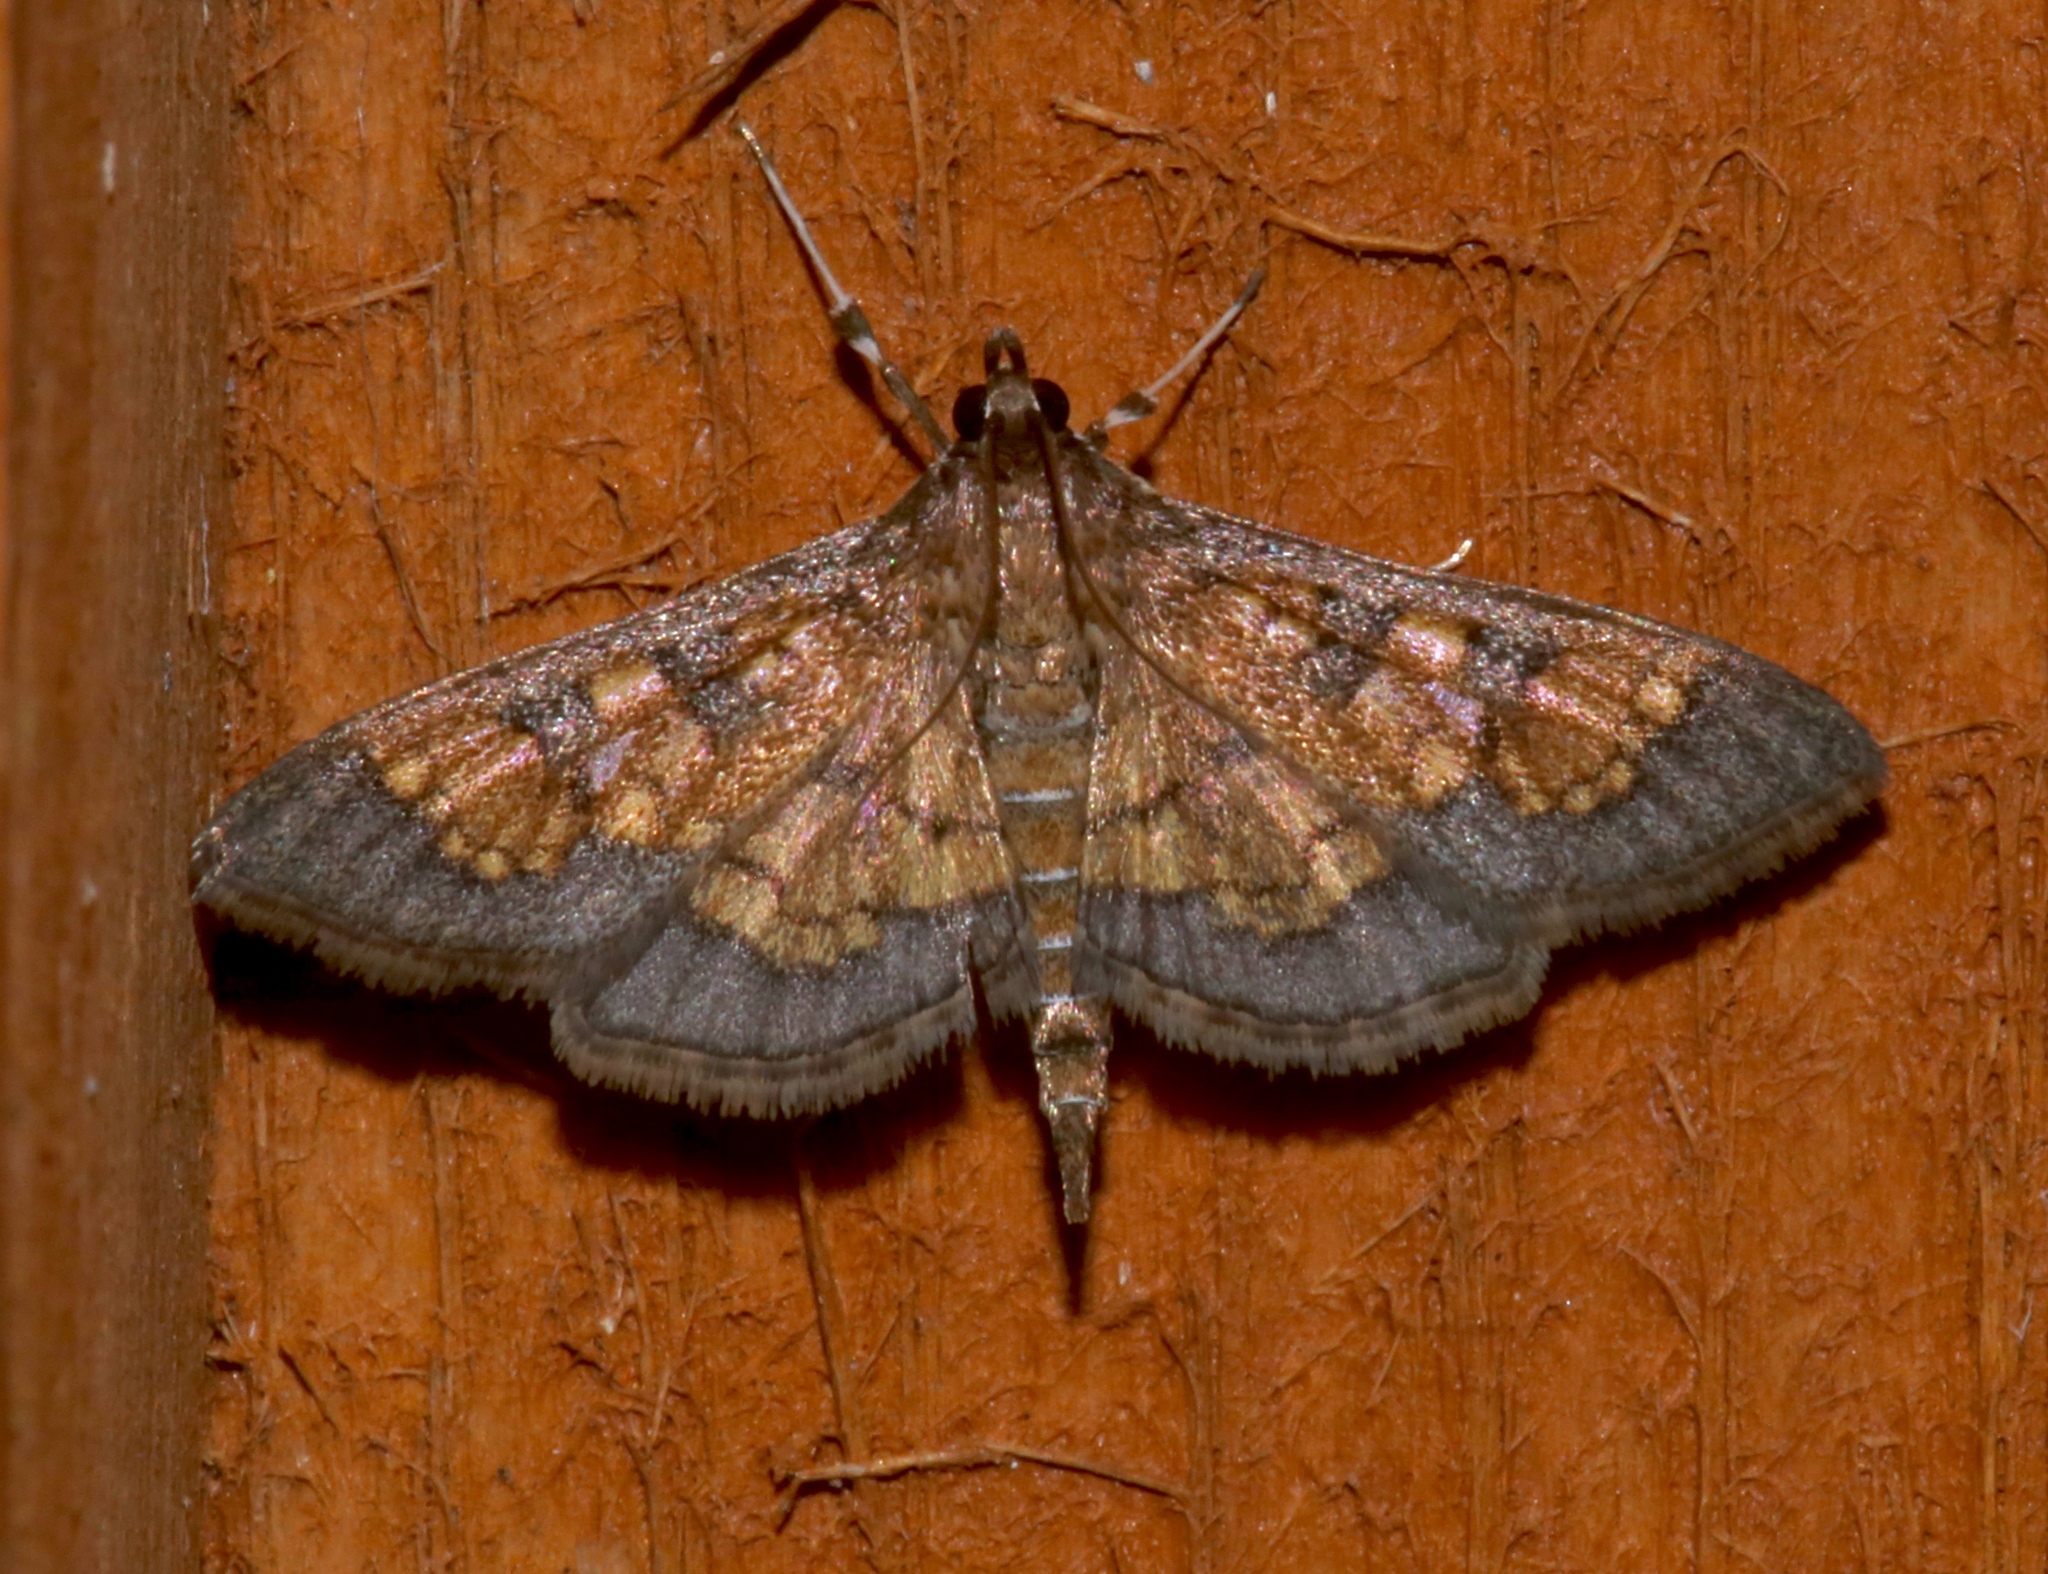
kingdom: Animalia
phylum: Arthropoda
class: Insecta
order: Lepidoptera
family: Crambidae
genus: Epipagis
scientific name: Epipagis adipaloides
